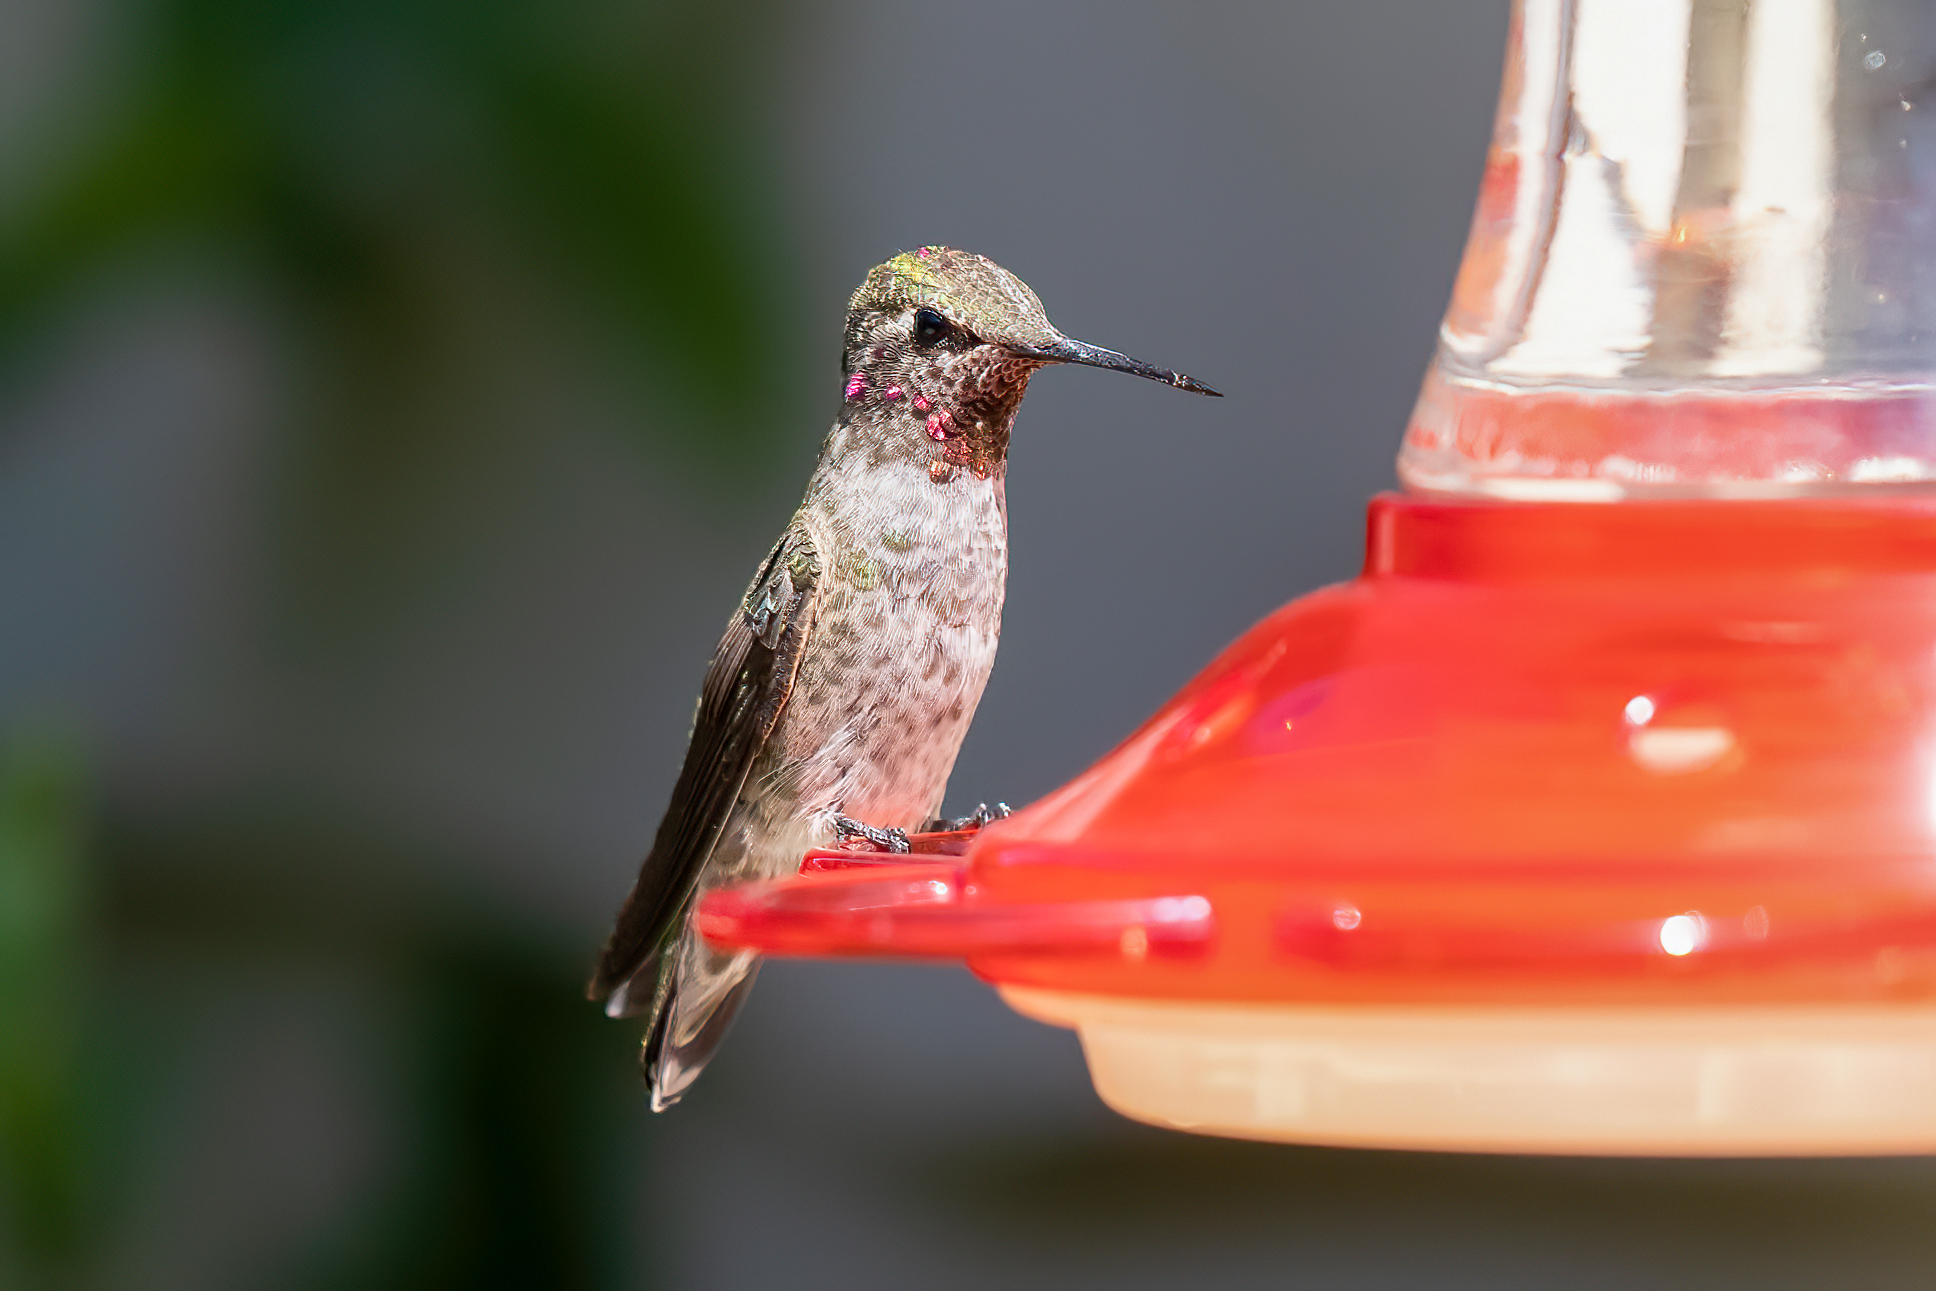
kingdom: Animalia
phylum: Chordata
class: Aves
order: Apodiformes
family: Trochilidae
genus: Calypte
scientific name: Calypte anna
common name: Anna's hummingbird
